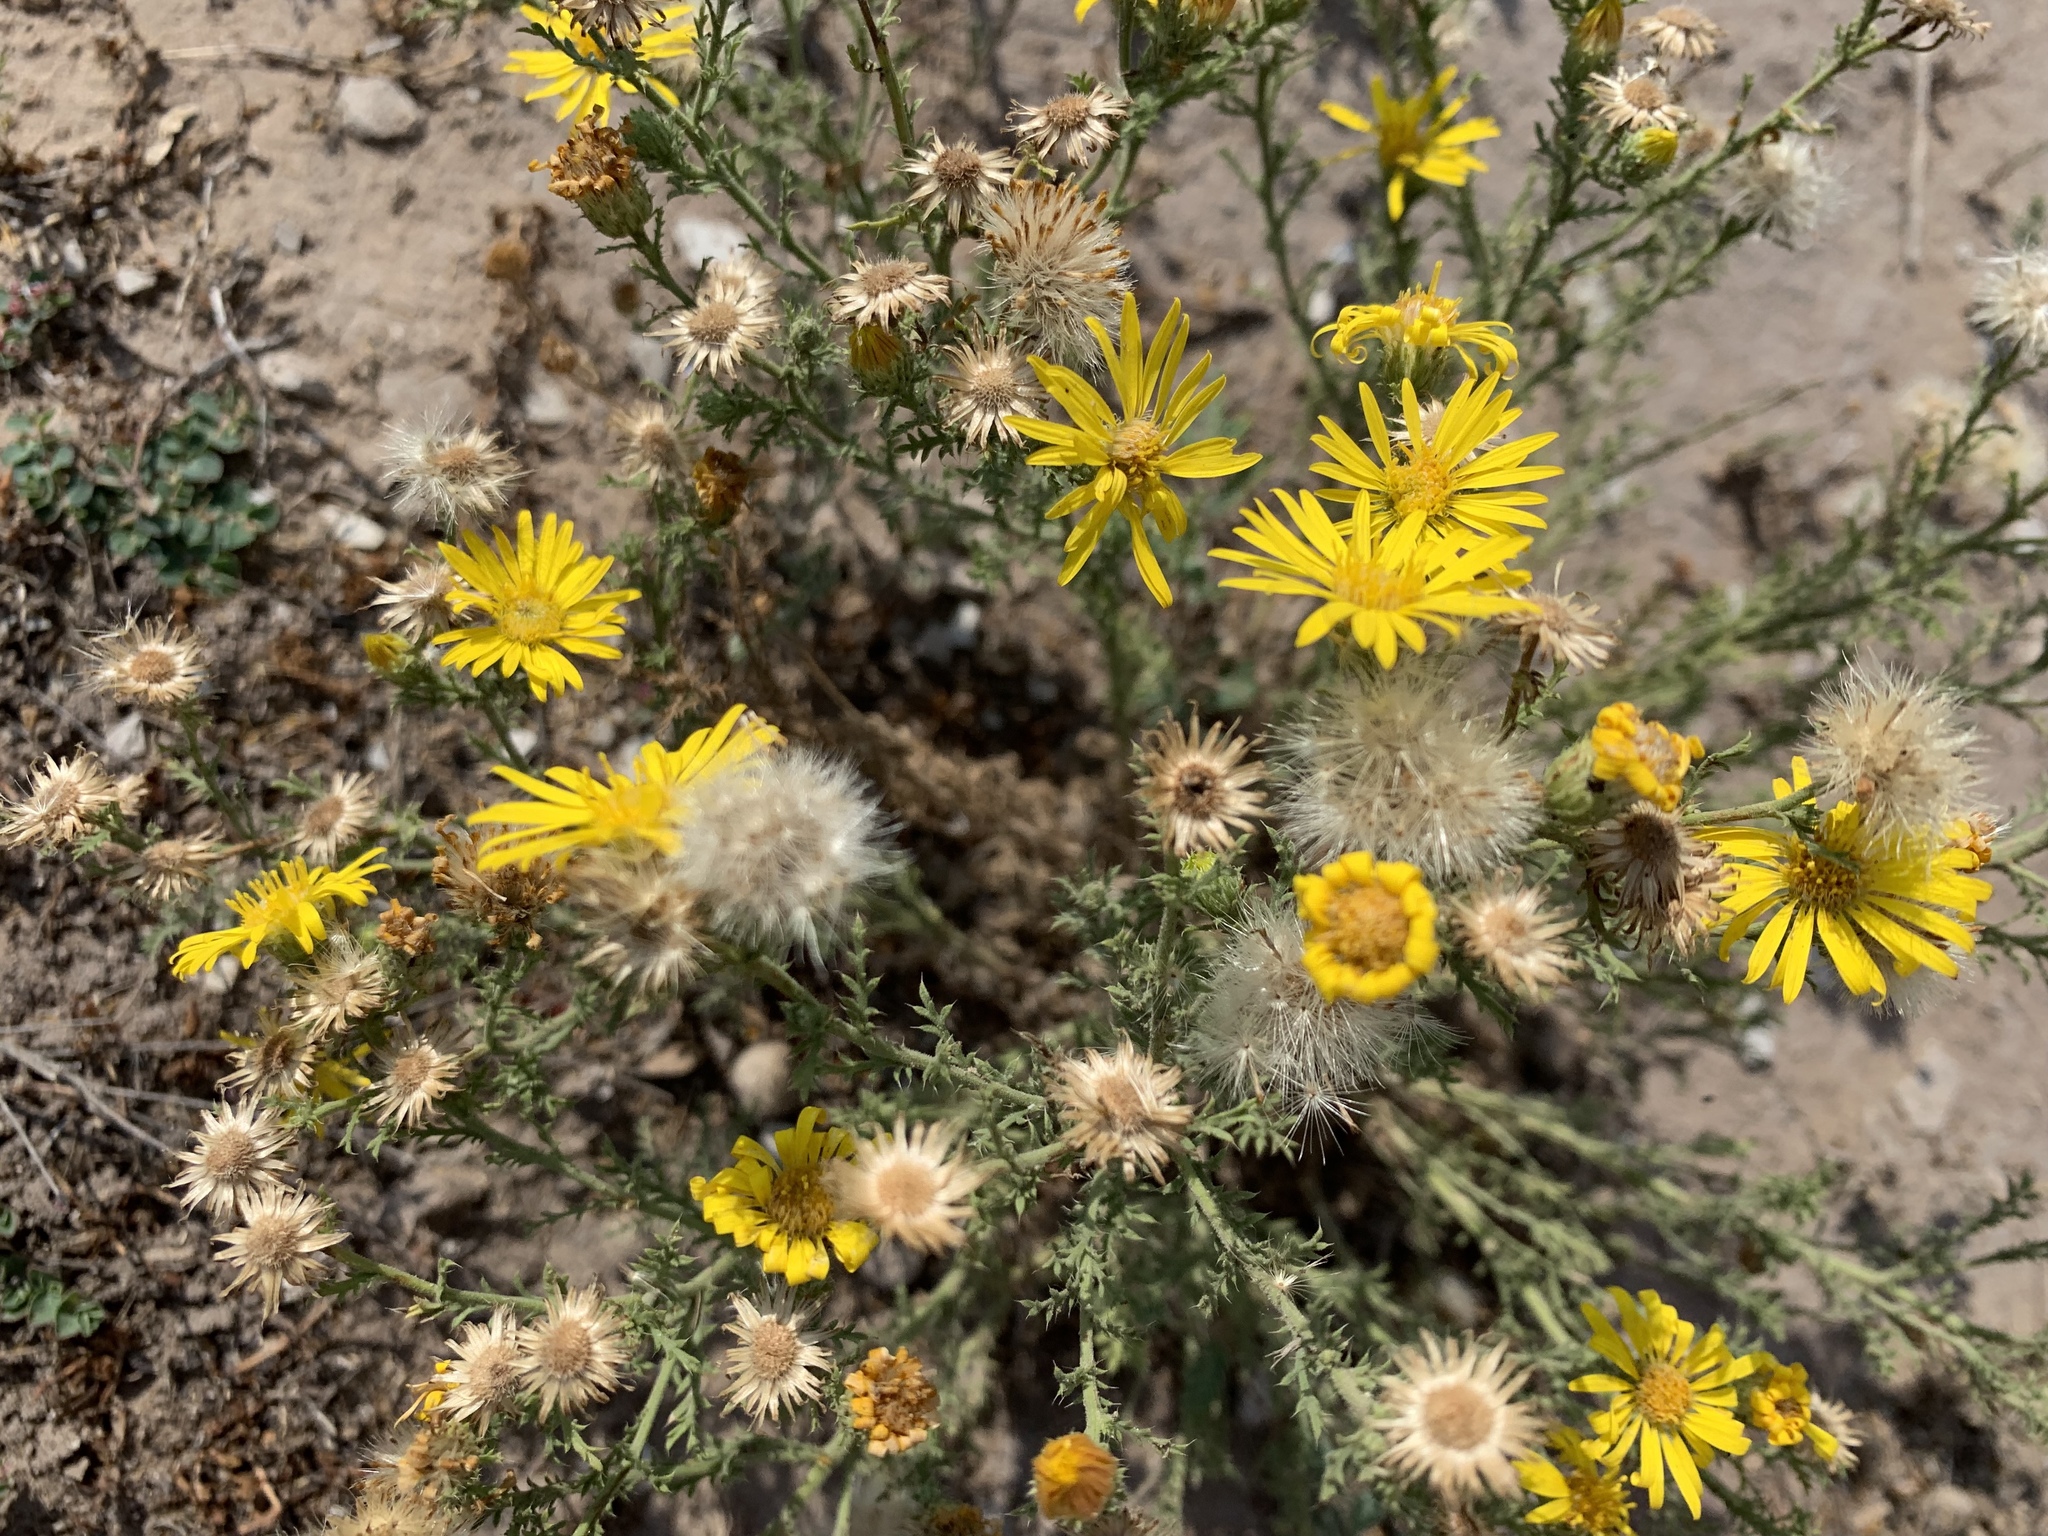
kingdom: Plantae
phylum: Tracheophyta
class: Magnoliopsida
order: Asterales
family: Asteraceae
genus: Xanthisma
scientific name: Xanthisma spinulosum
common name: Spiny goldenweed
